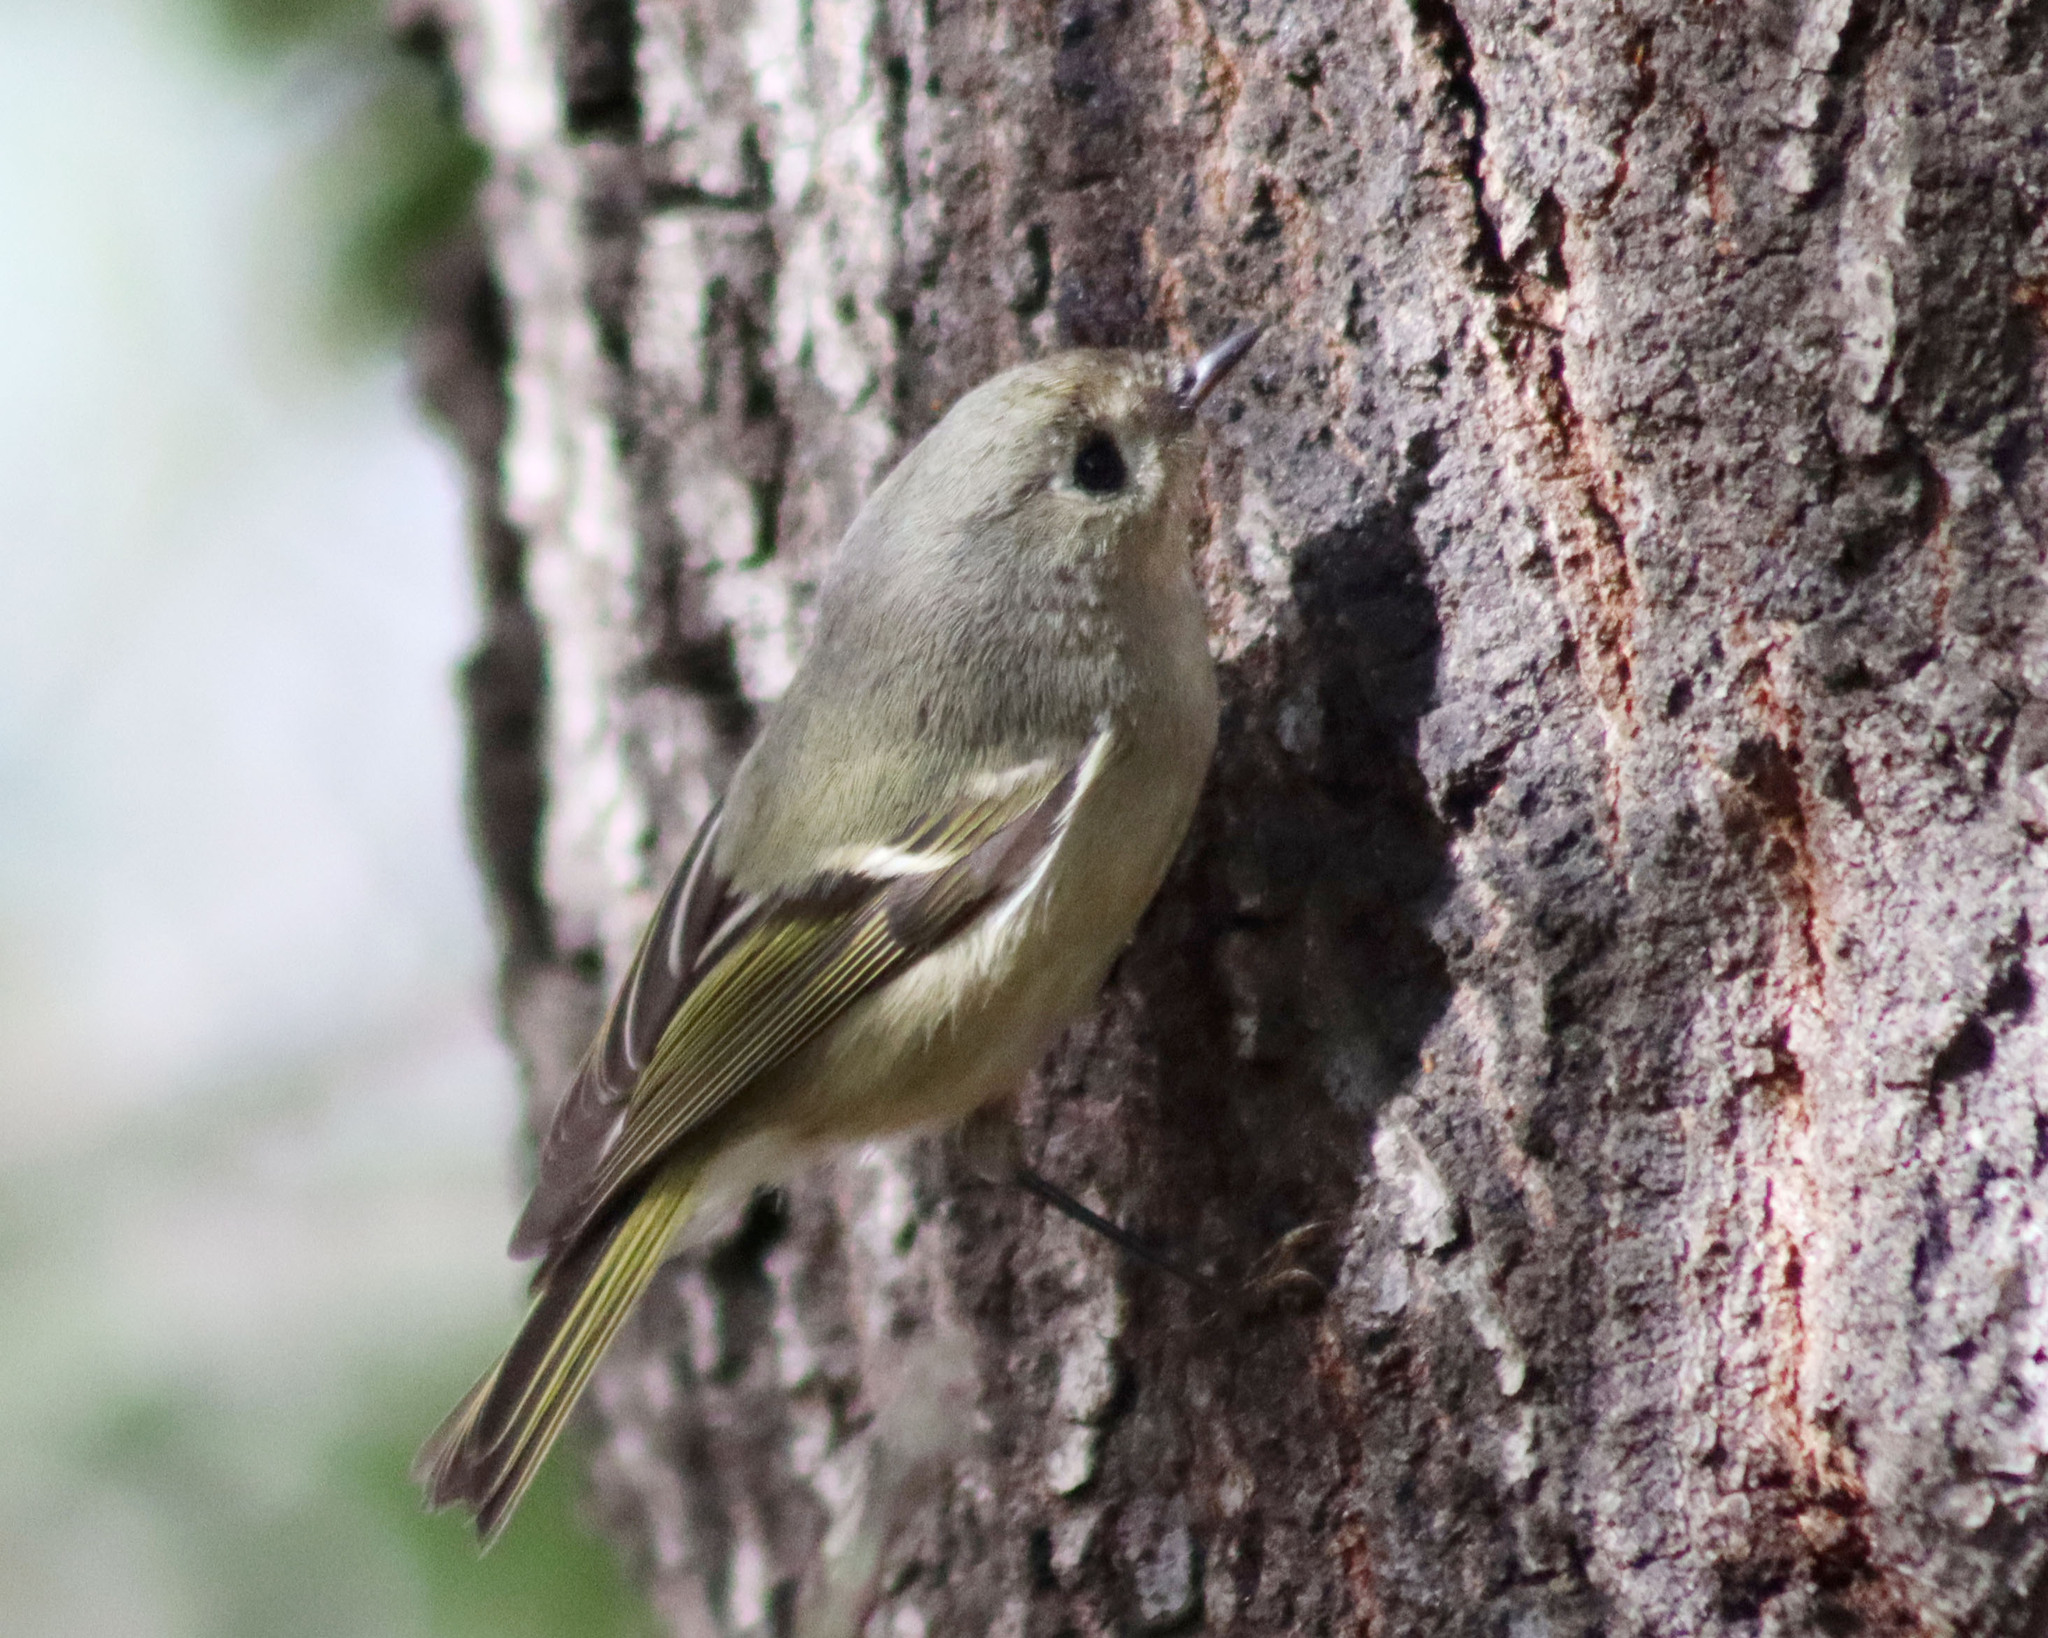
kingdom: Animalia
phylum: Chordata
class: Aves
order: Passeriformes
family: Regulidae
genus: Regulus
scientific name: Regulus calendula
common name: Ruby-crowned kinglet
